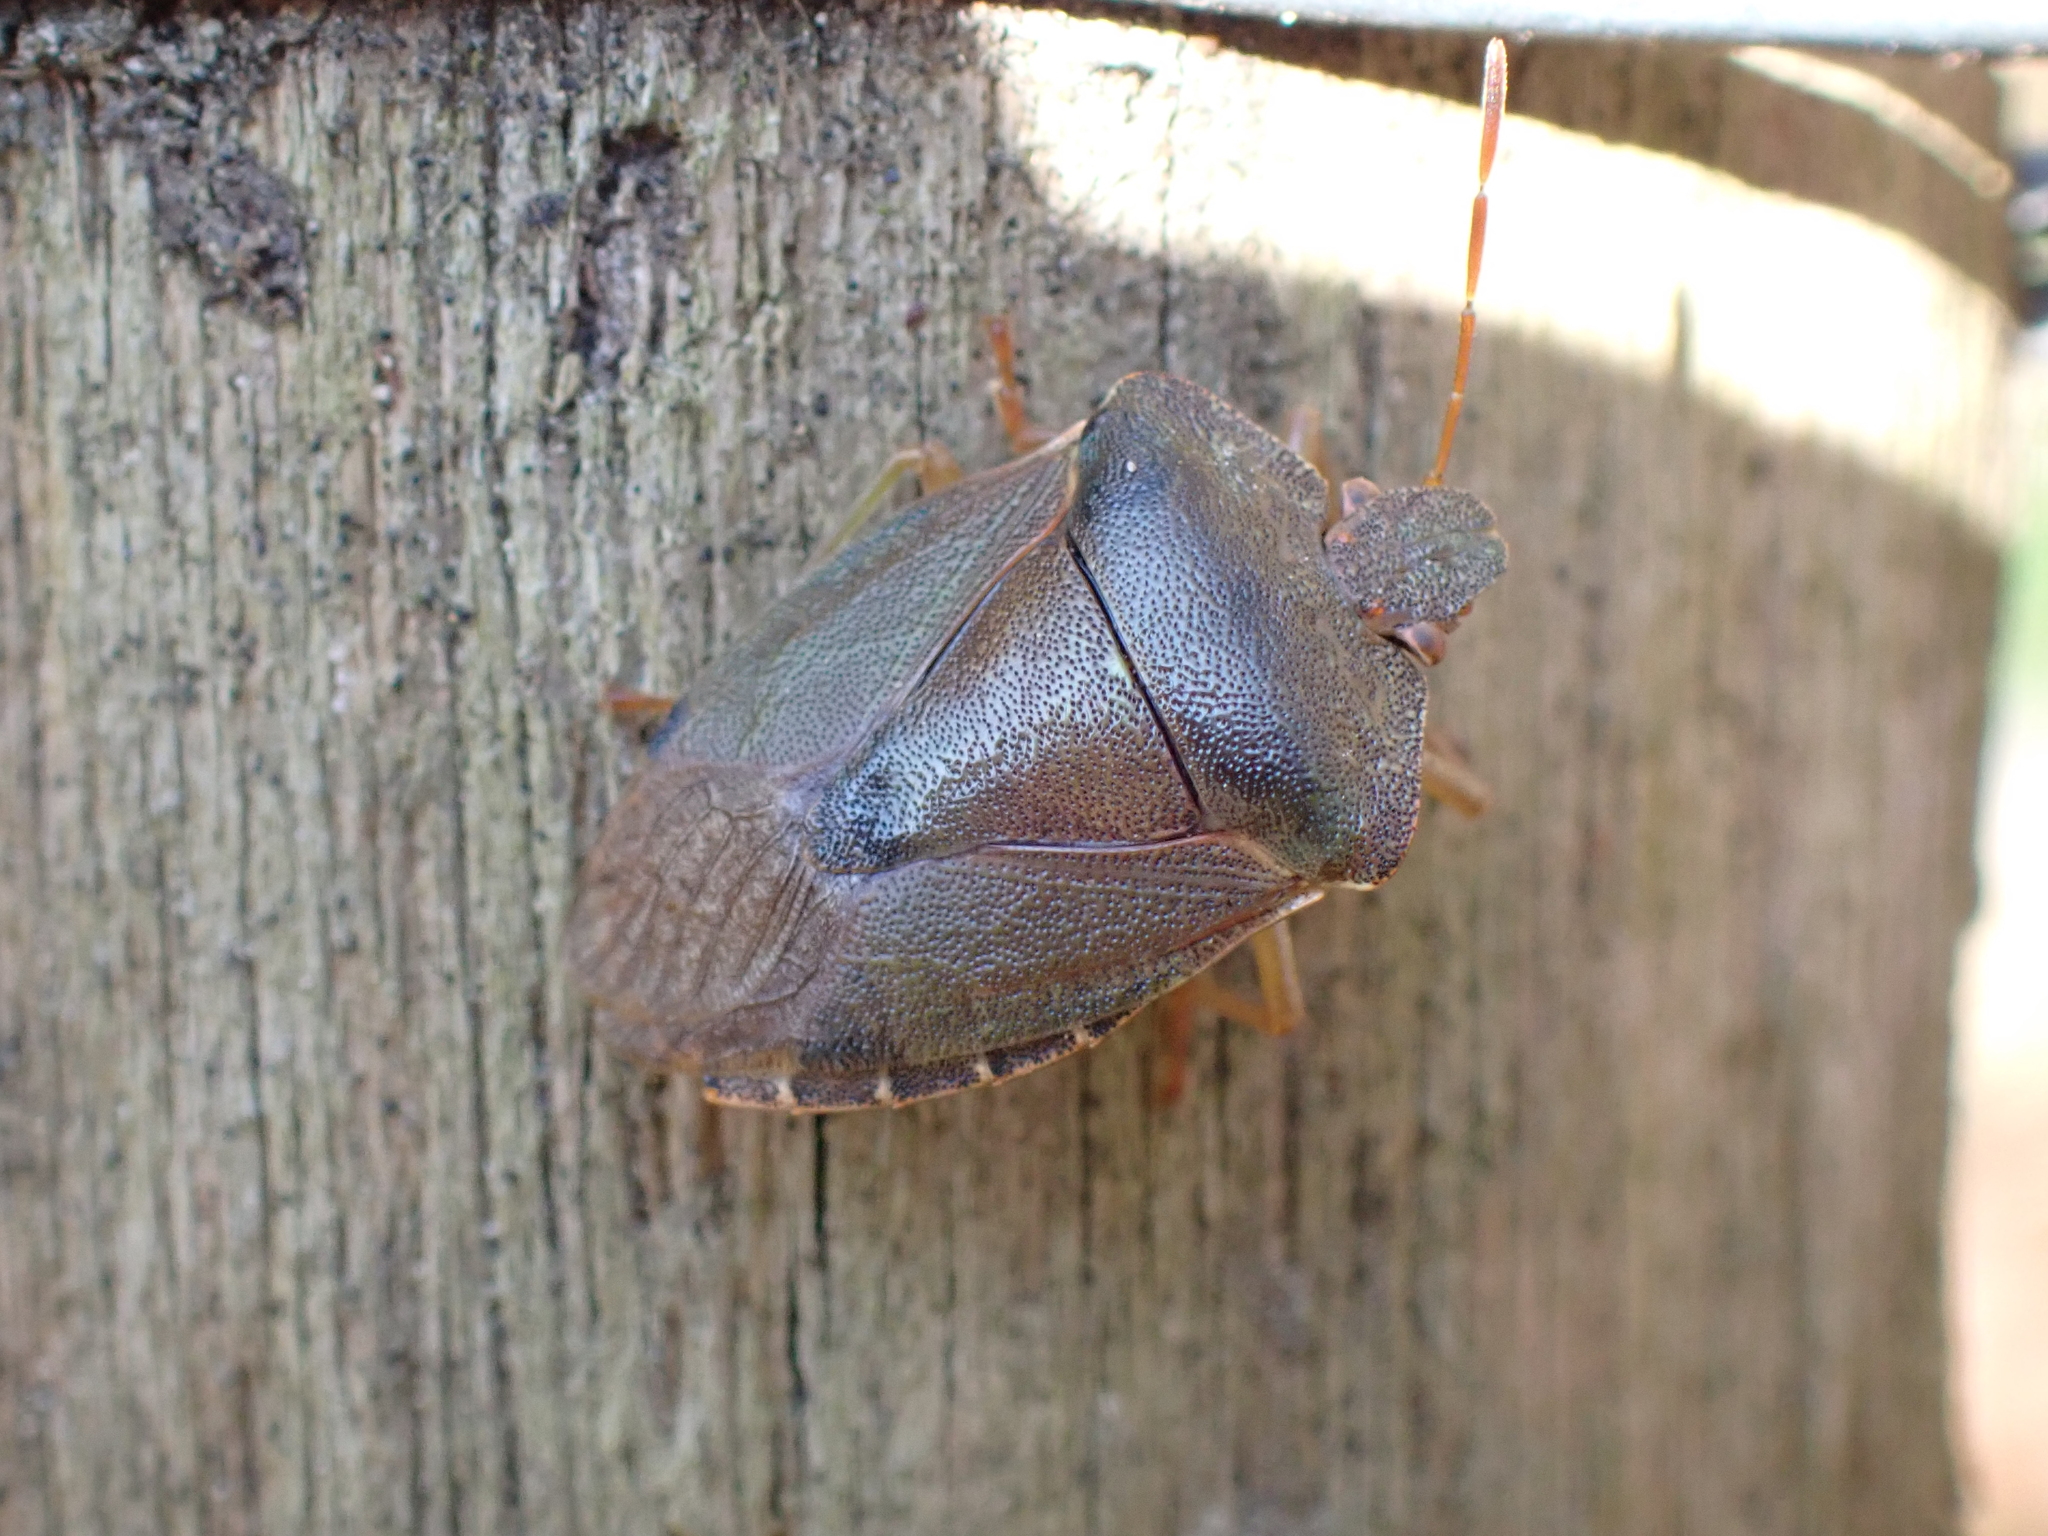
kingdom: Animalia
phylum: Arthropoda
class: Insecta
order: Hemiptera
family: Pentatomidae
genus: Palomena
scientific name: Palomena prasina
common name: Green shieldbug
